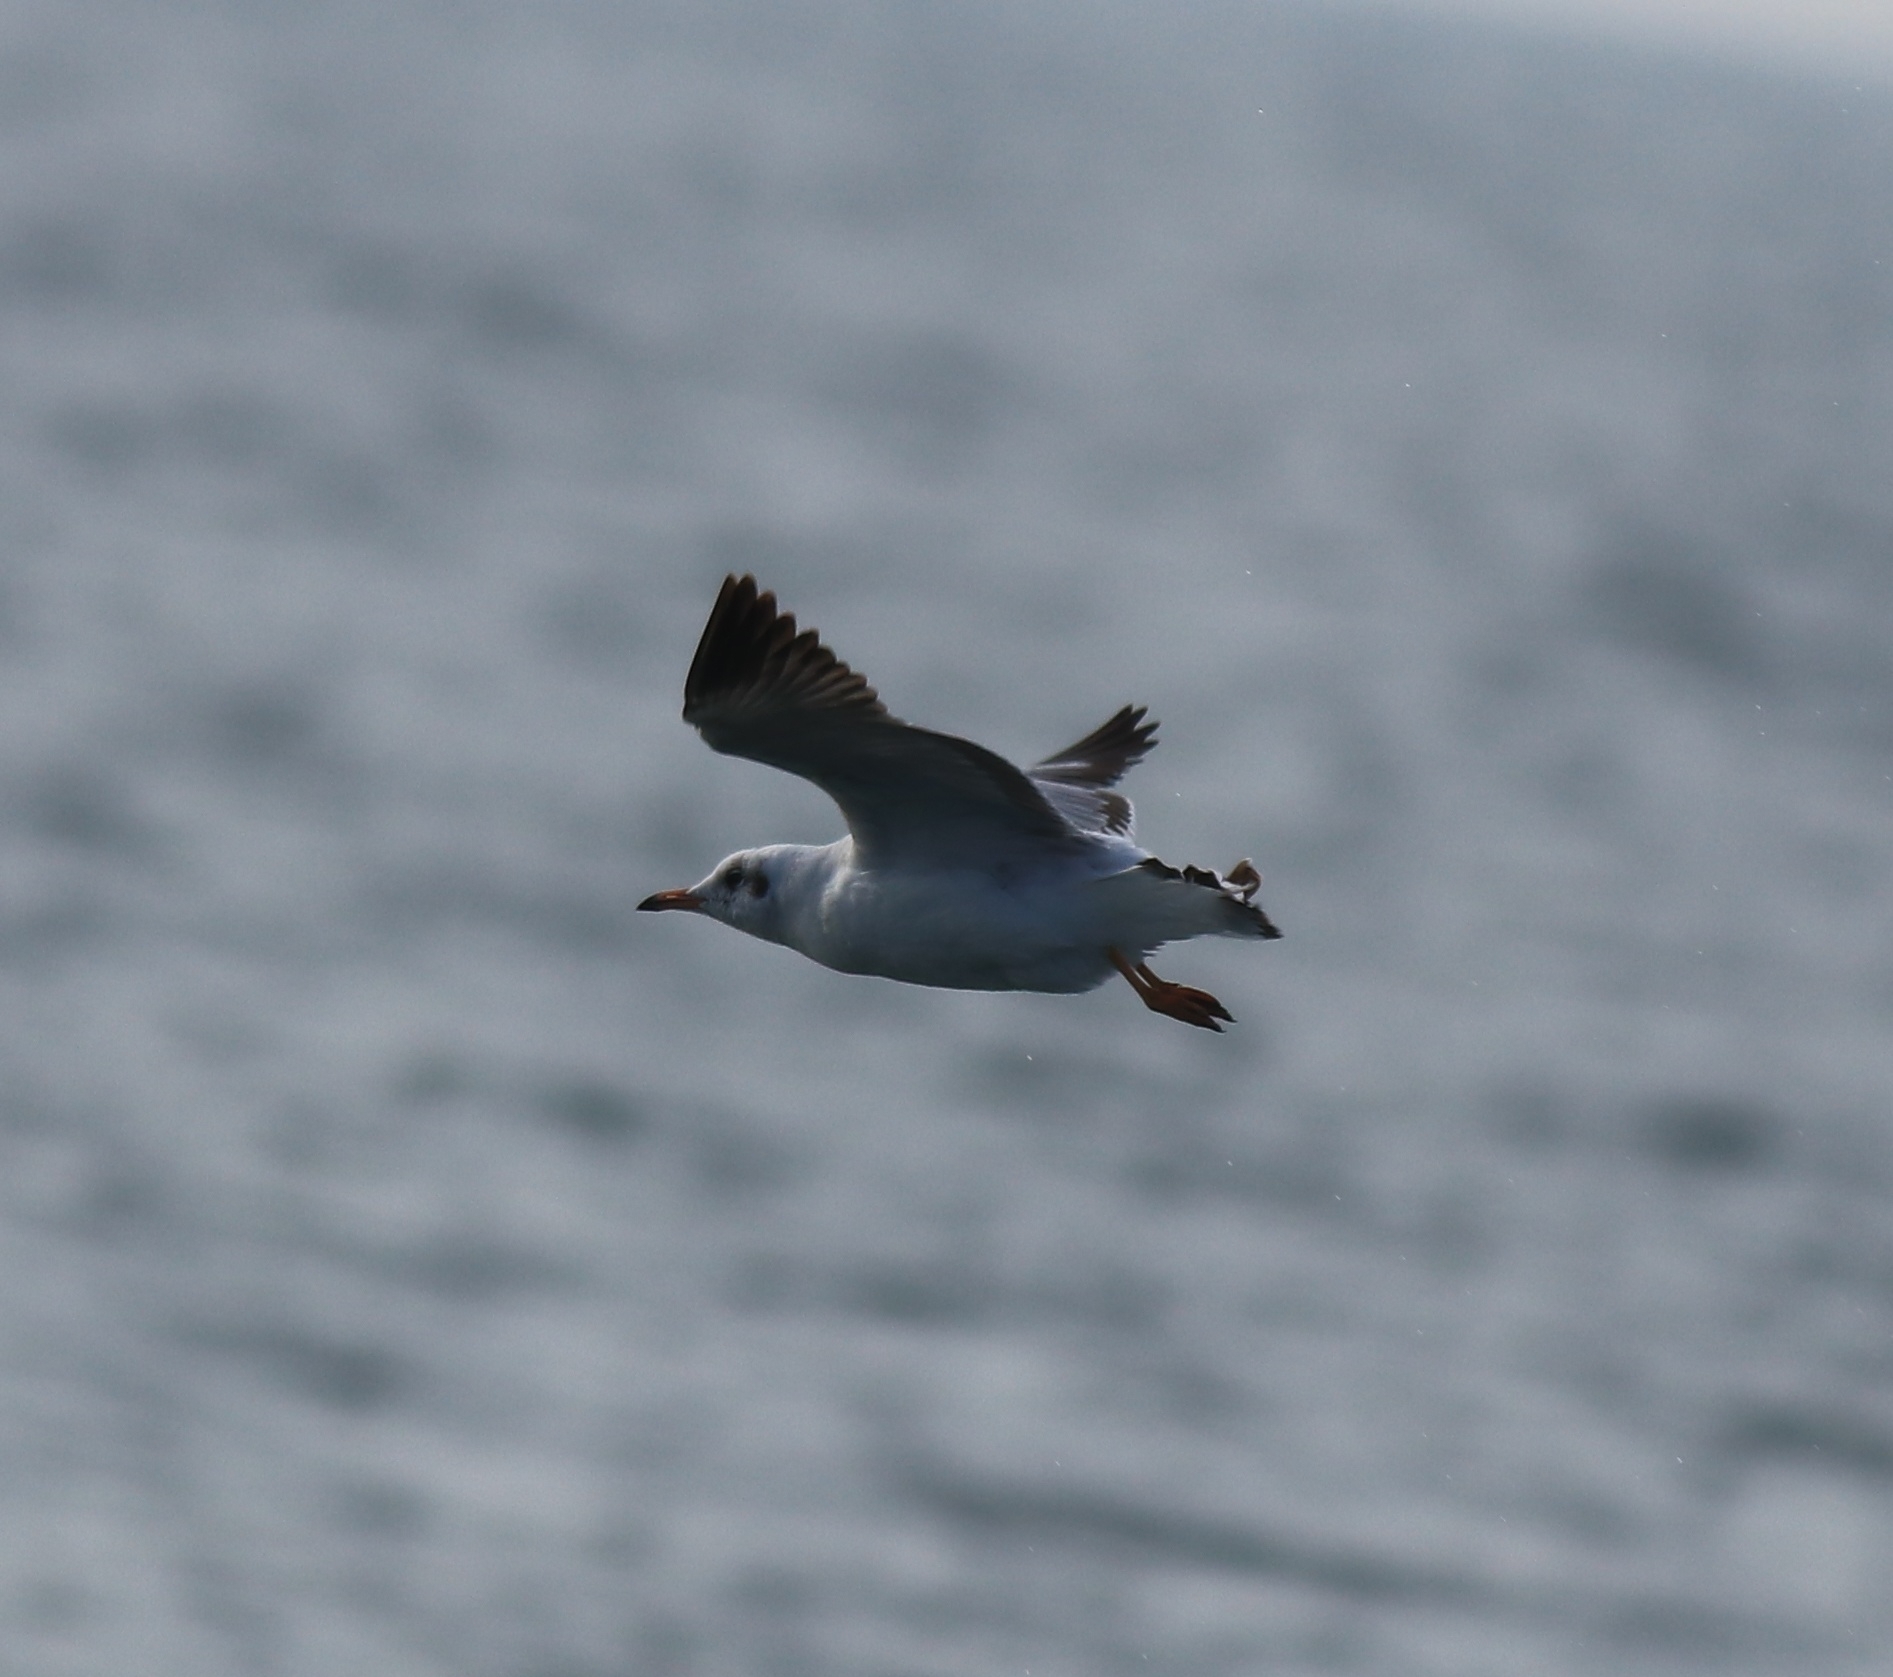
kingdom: Animalia
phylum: Chordata
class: Aves
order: Charadriiformes
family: Laridae
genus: Chroicocephalus
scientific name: Chroicocephalus brunnicephalus
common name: Brown-headed gull
